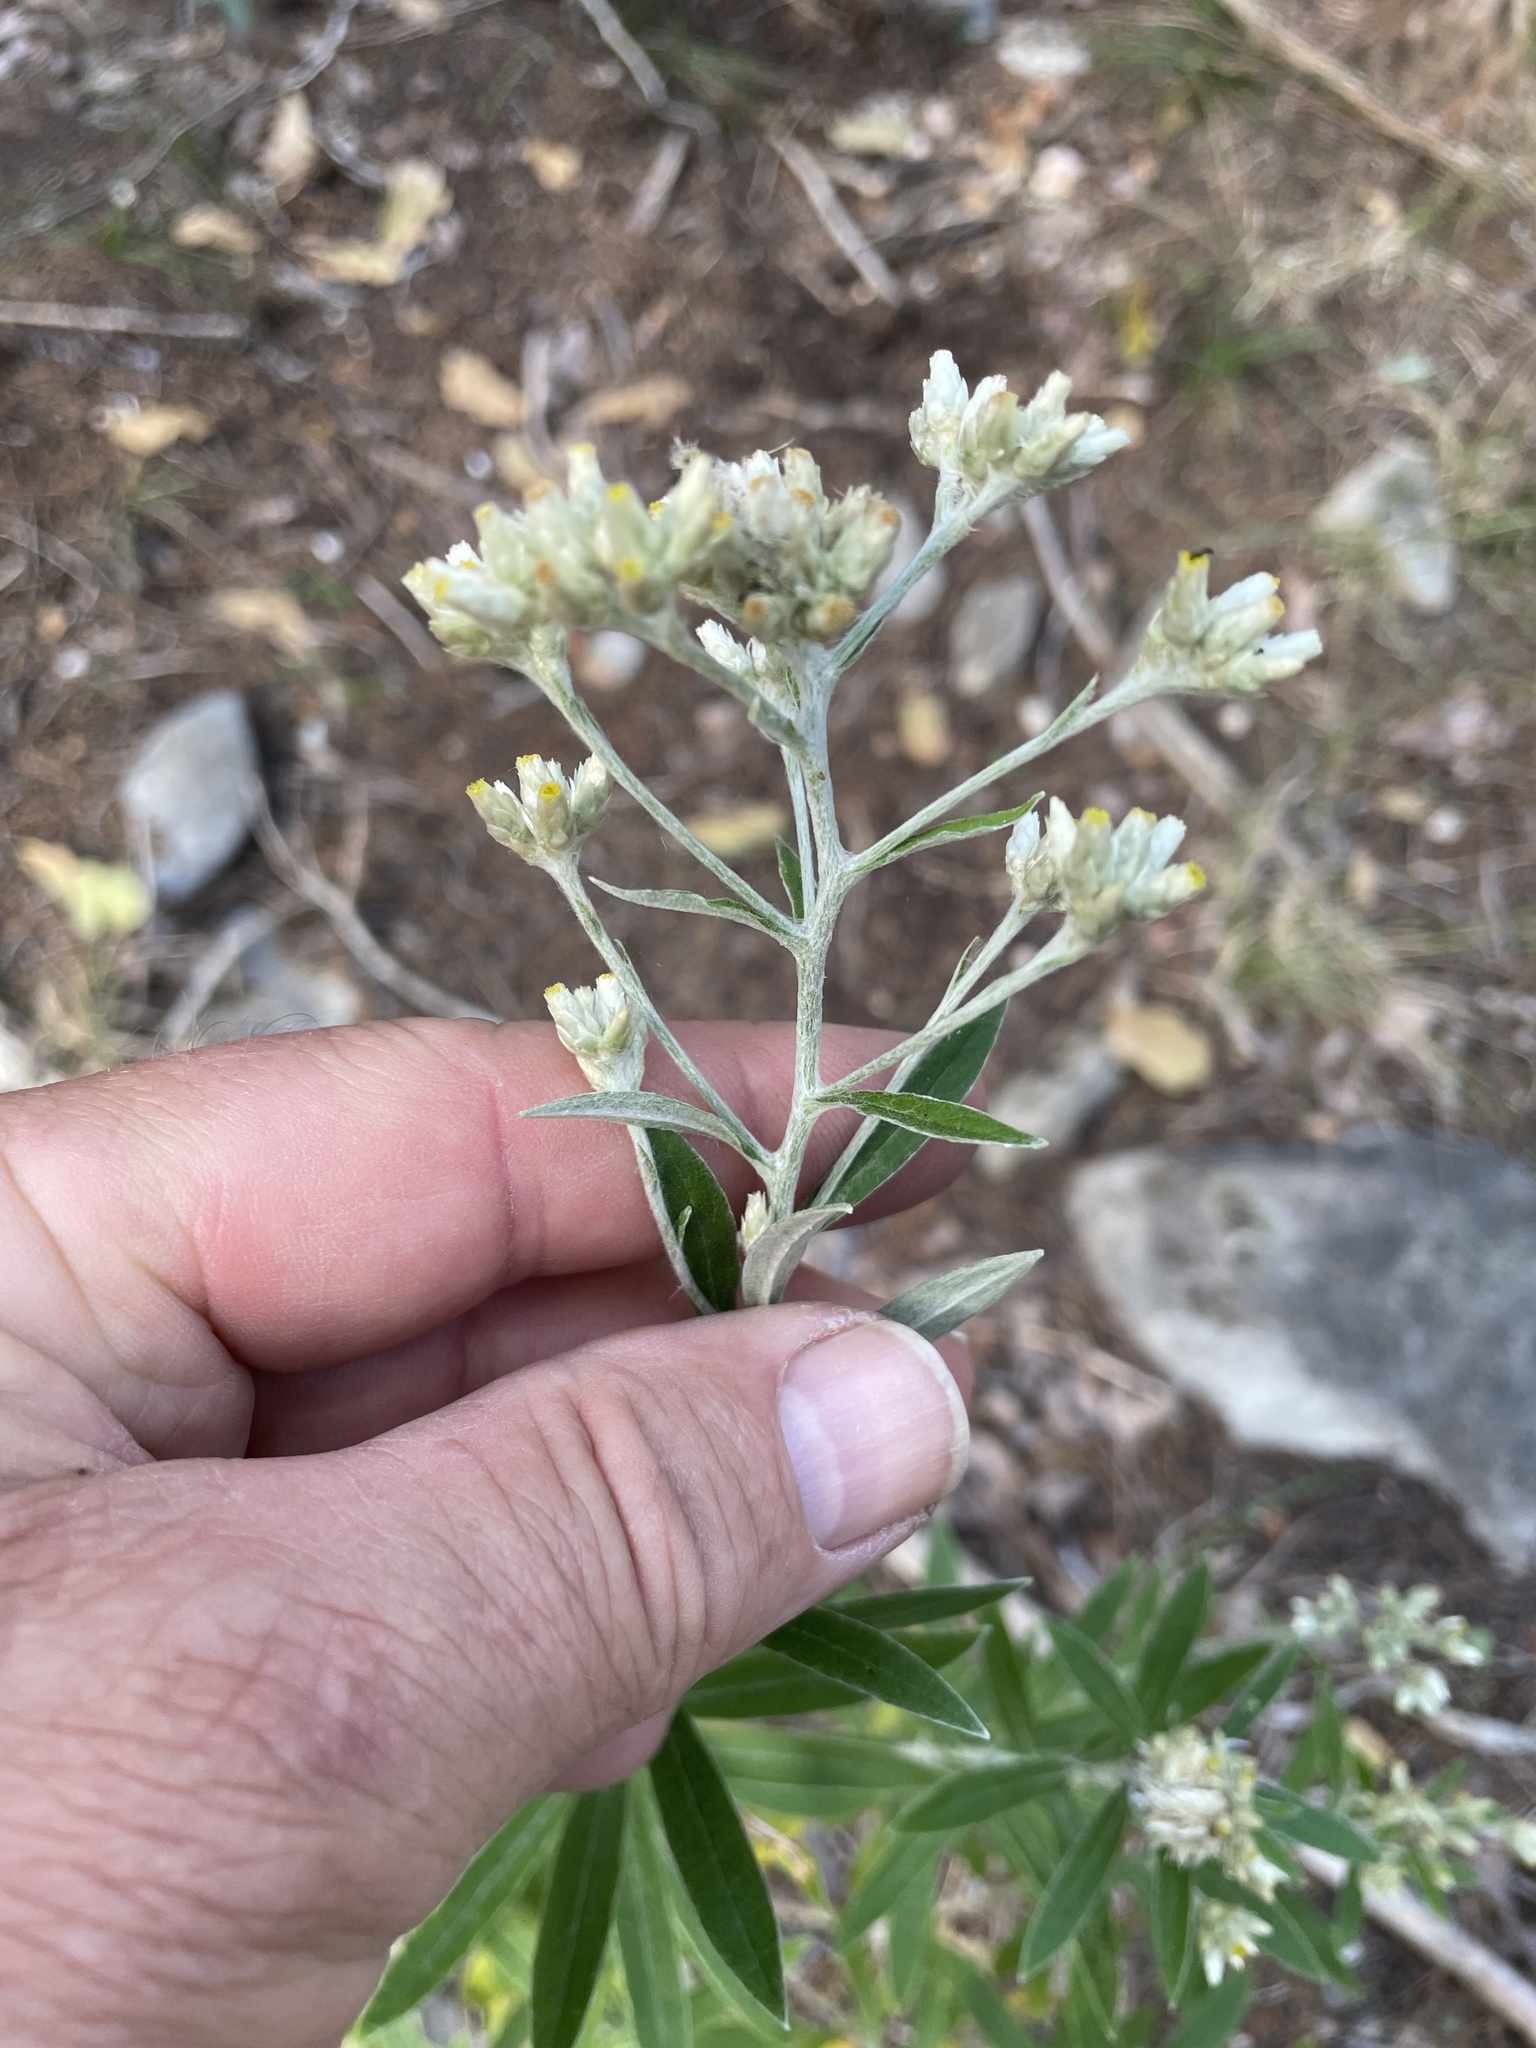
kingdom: Plantae
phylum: Tracheophyta
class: Magnoliopsida
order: Asterales
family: Asteraceae
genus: Pseudognaphalium
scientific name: Pseudognaphalium obtusifolium
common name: Eastern rabbit-tobacco
